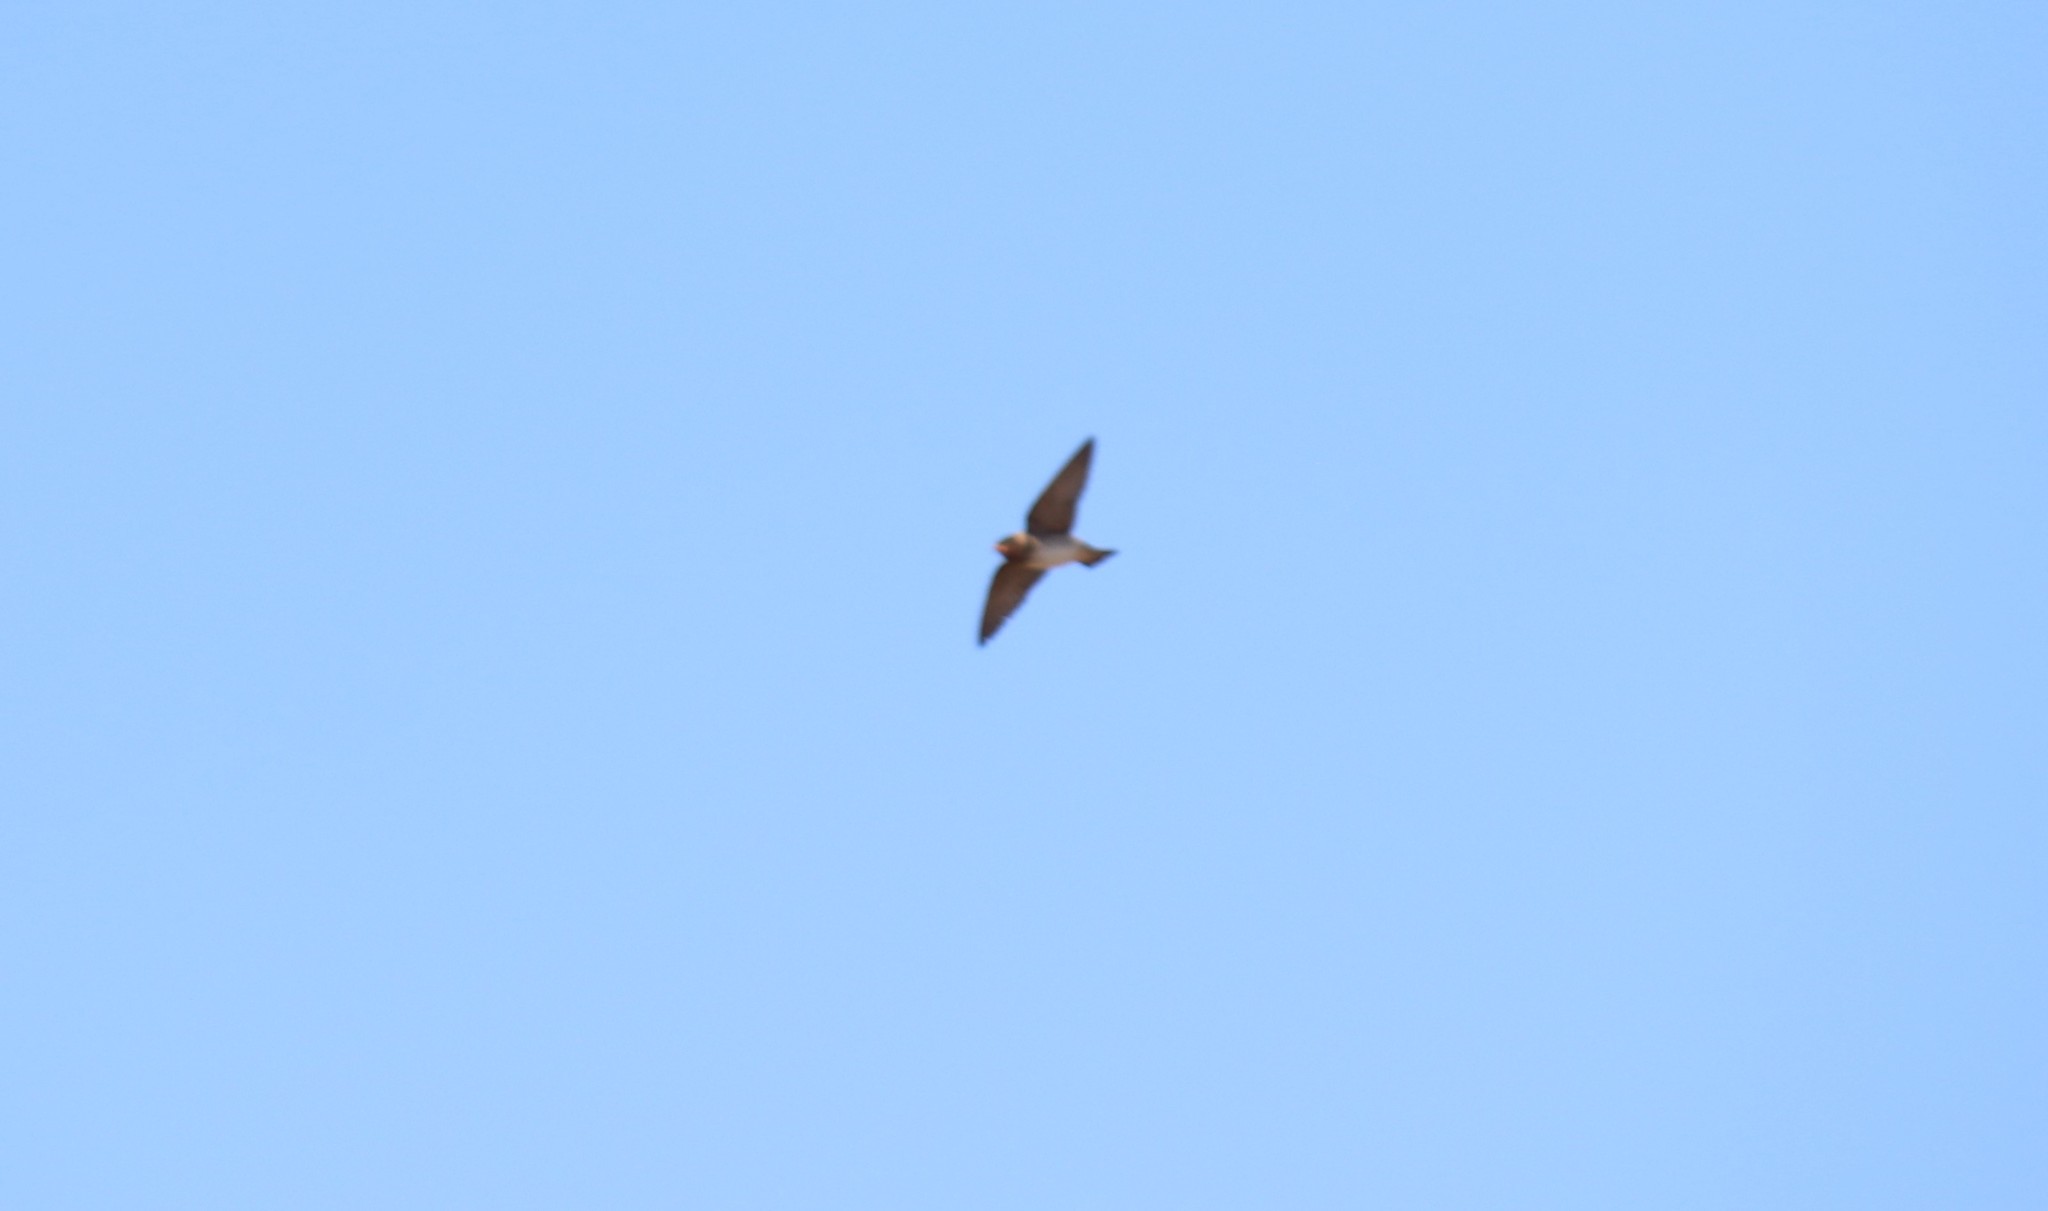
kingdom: Animalia
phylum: Chordata
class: Aves
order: Passeriformes
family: Hirundinidae
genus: Petrochelidon
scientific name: Petrochelidon pyrrhonota
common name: American cliff swallow
